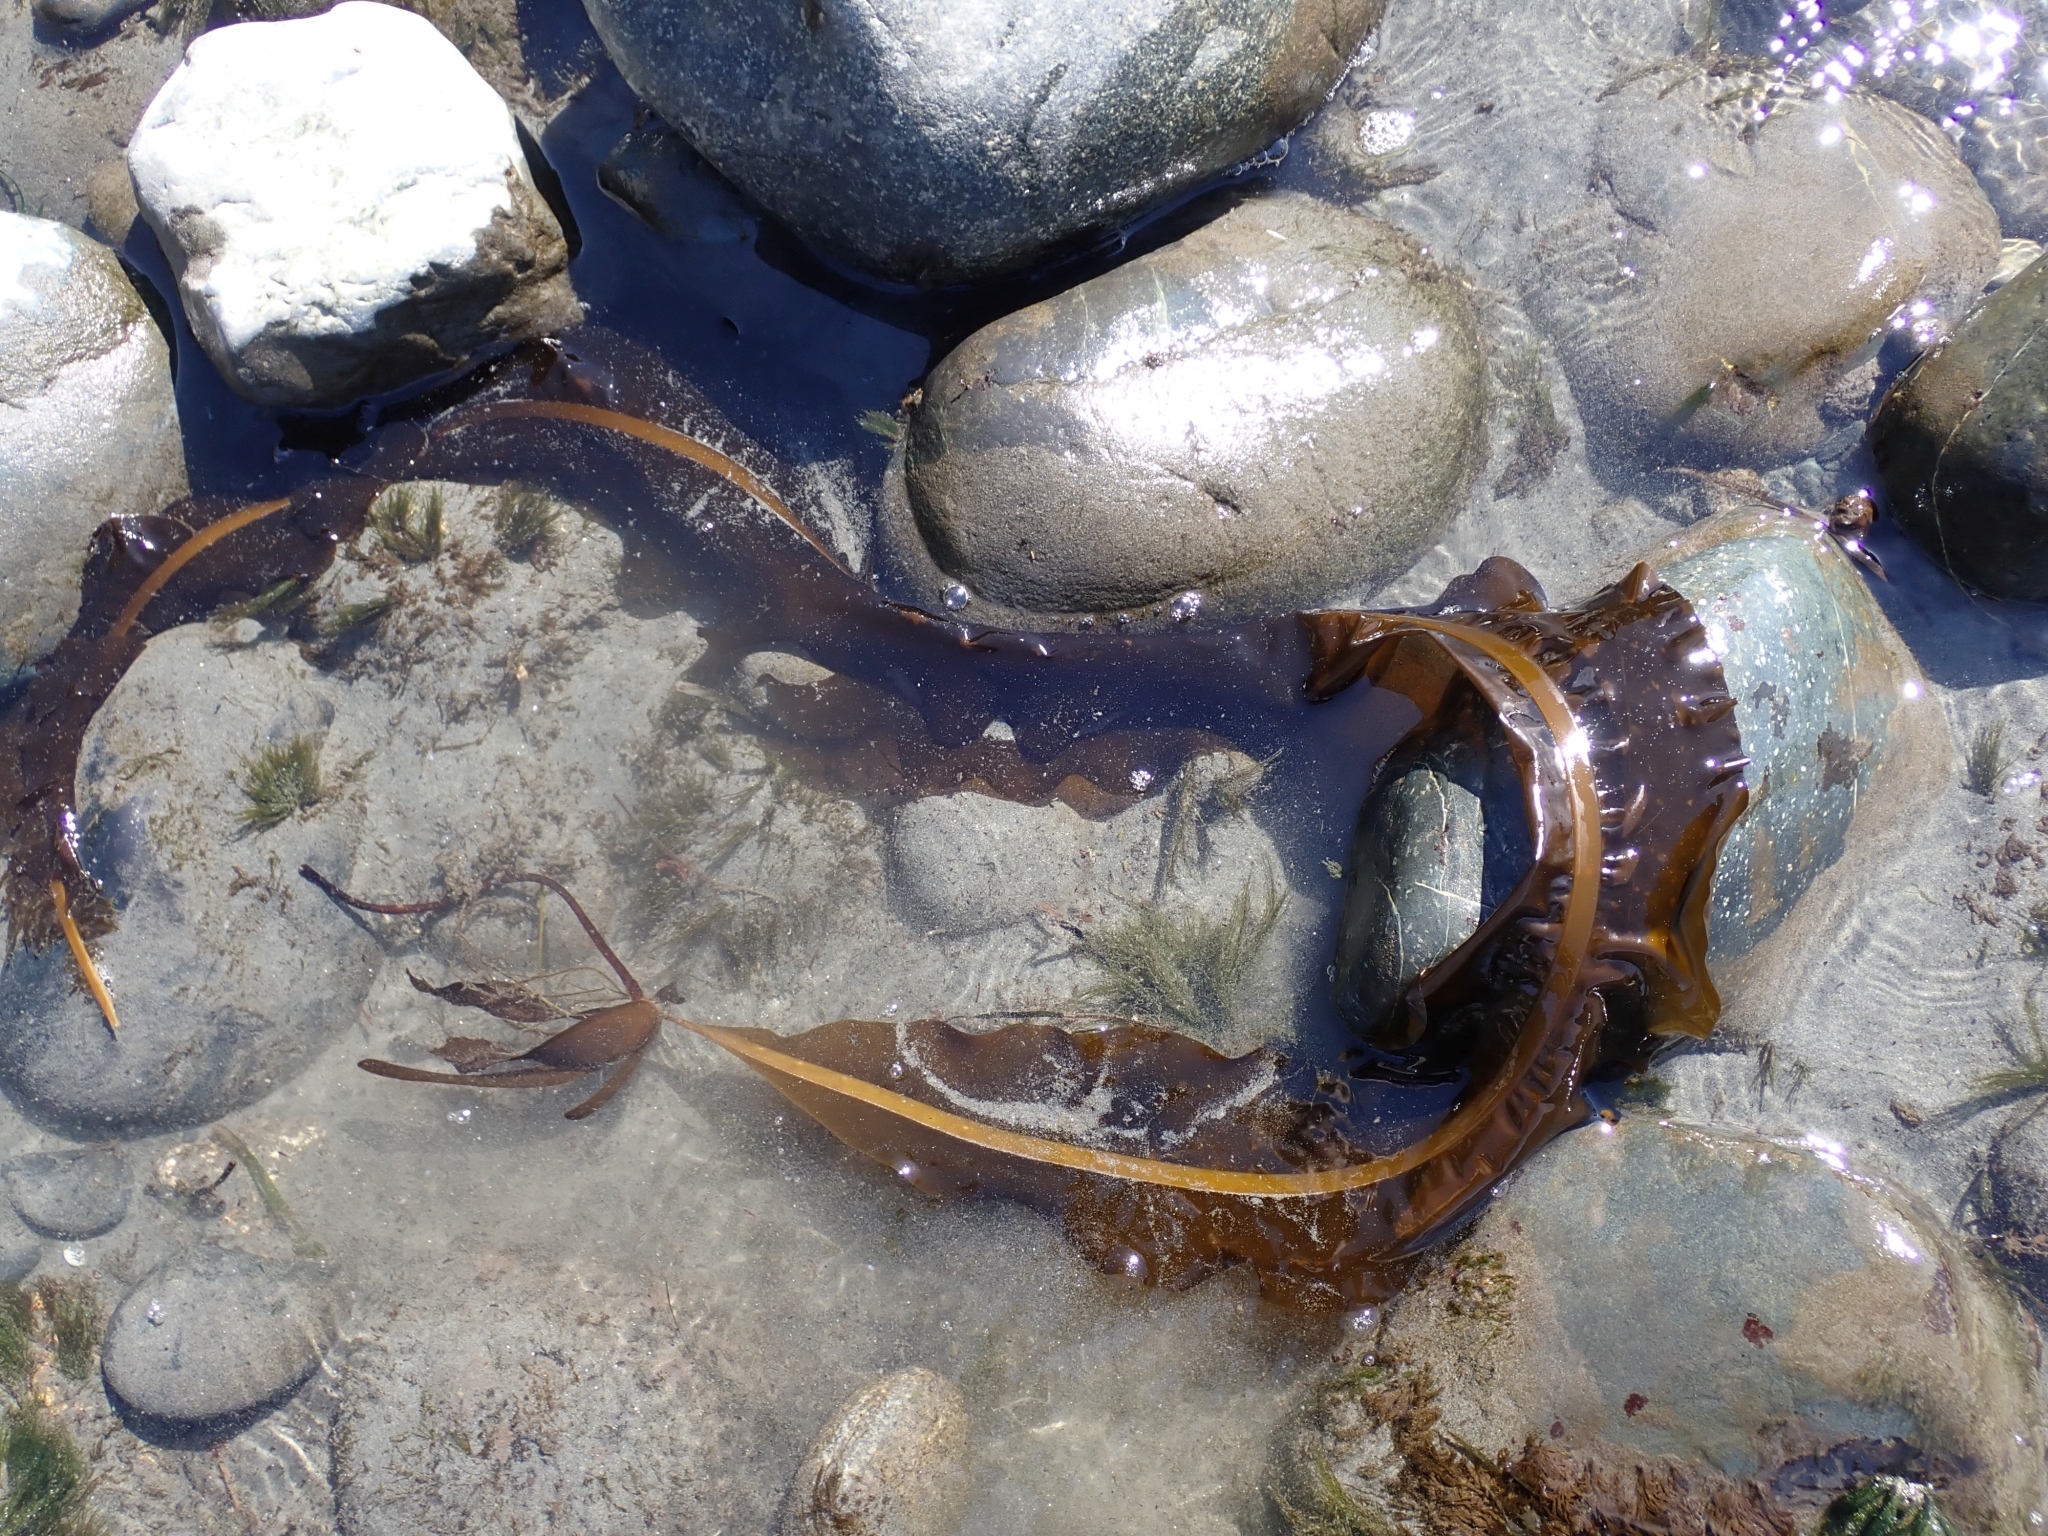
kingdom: Chromista
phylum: Ochrophyta
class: Phaeophyceae
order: Laminariales
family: Alariaceae
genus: Alaria
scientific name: Alaria marginata
